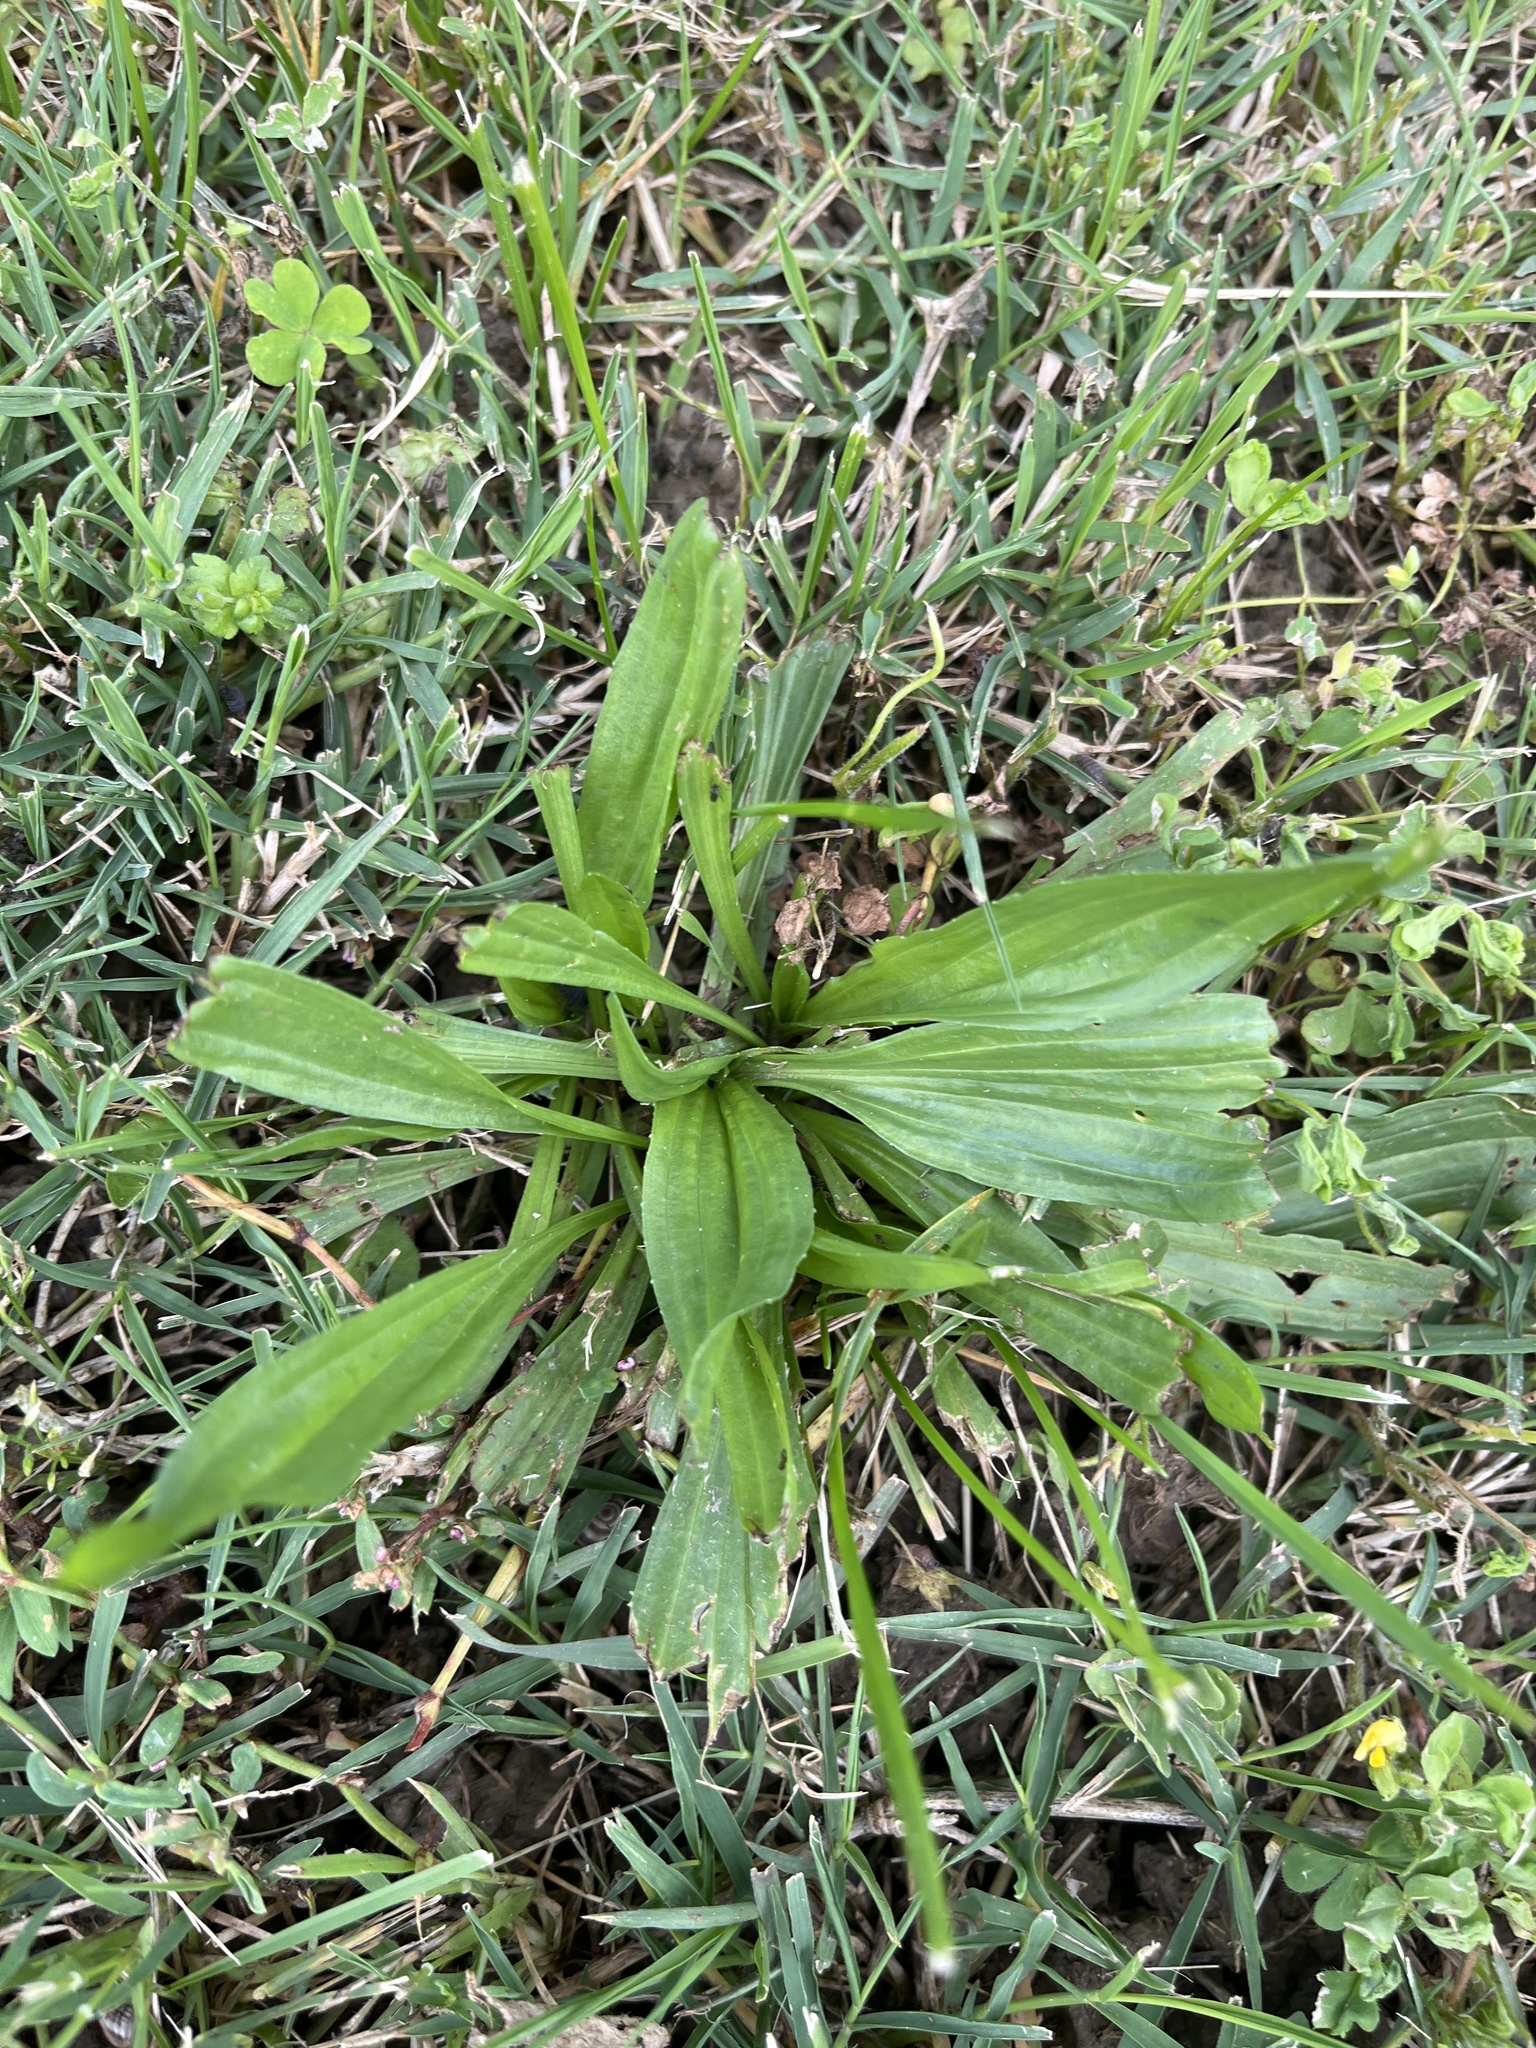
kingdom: Plantae
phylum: Tracheophyta
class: Magnoliopsida
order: Lamiales
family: Plantaginaceae
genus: Plantago
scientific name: Plantago lanceolata
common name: Ribwort plantain
